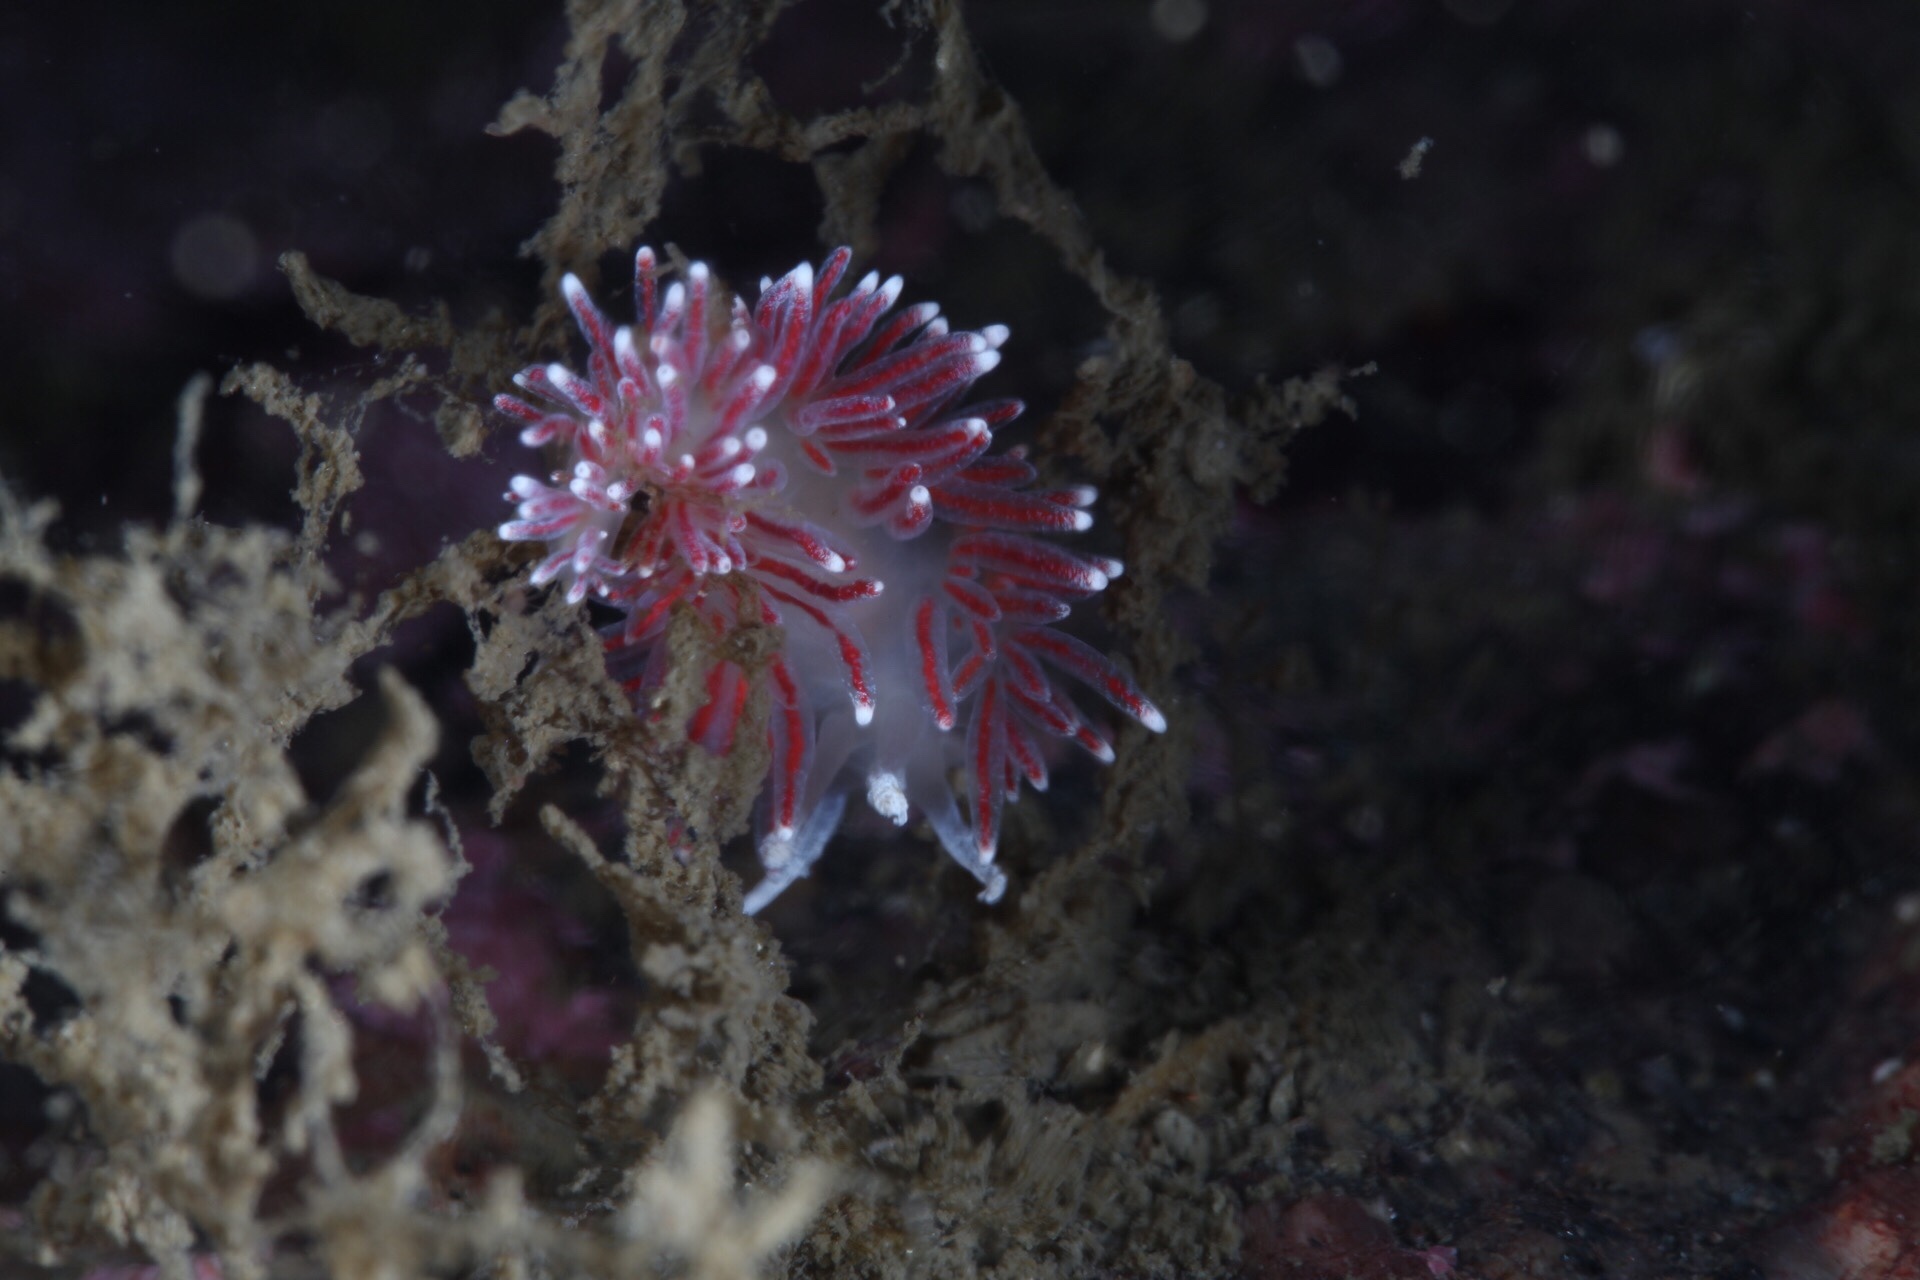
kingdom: Animalia
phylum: Mollusca
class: Gastropoda
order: Nudibranchia
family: Flabellinidae
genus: Carronella
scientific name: Carronella pellucida
